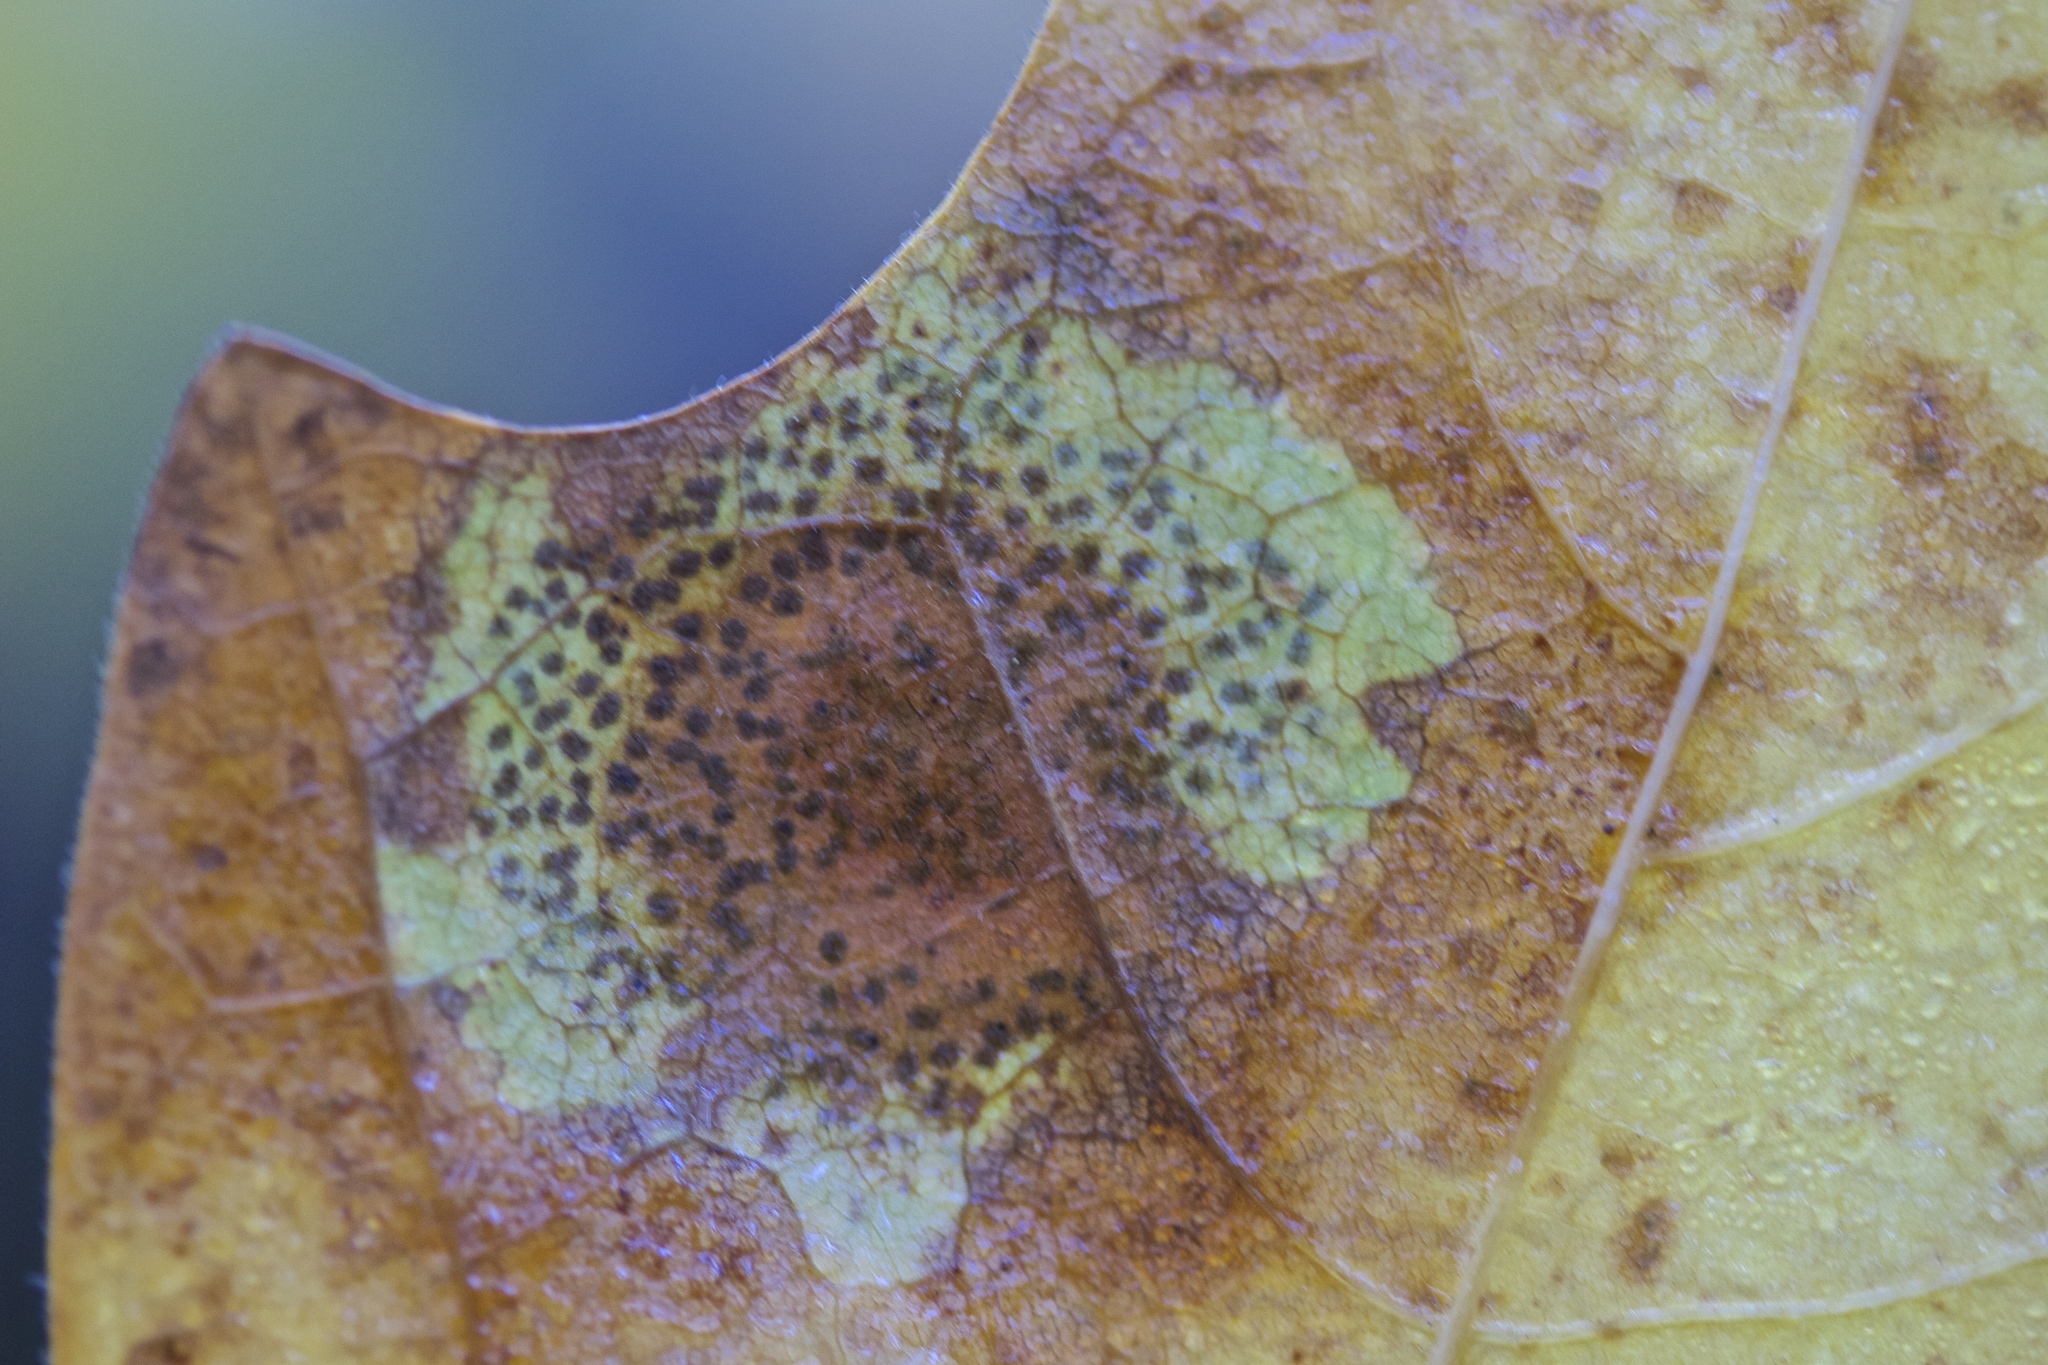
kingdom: Fungi
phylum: Ascomycota
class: Leotiomycetes
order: Rhytismatales
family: Rhytismataceae
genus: Rhytisma
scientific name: Rhytisma punctatum
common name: Speckled tar spot
